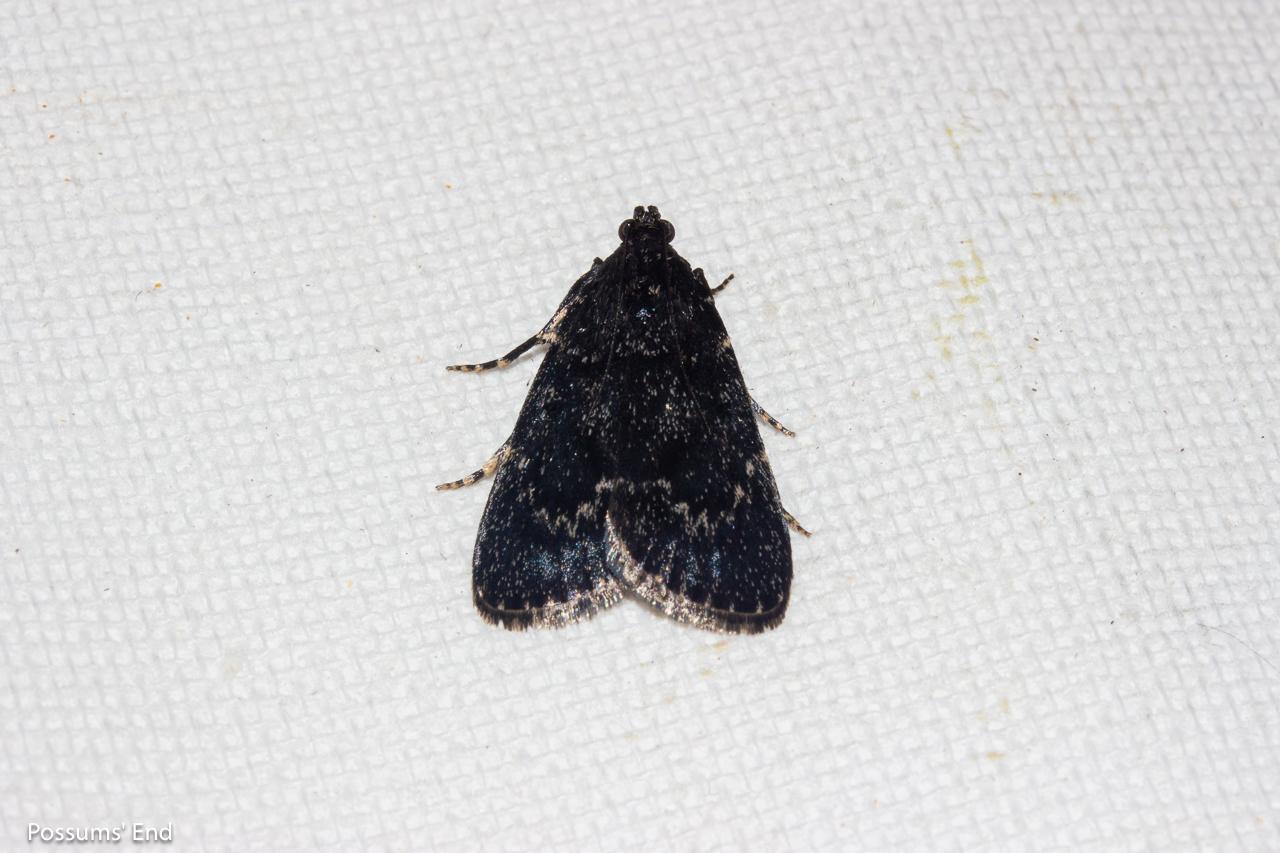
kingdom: Animalia
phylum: Arthropoda
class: Insecta
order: Lepidoptera
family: Pyralidae
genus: Stericta
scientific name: Stericta carbonalis
